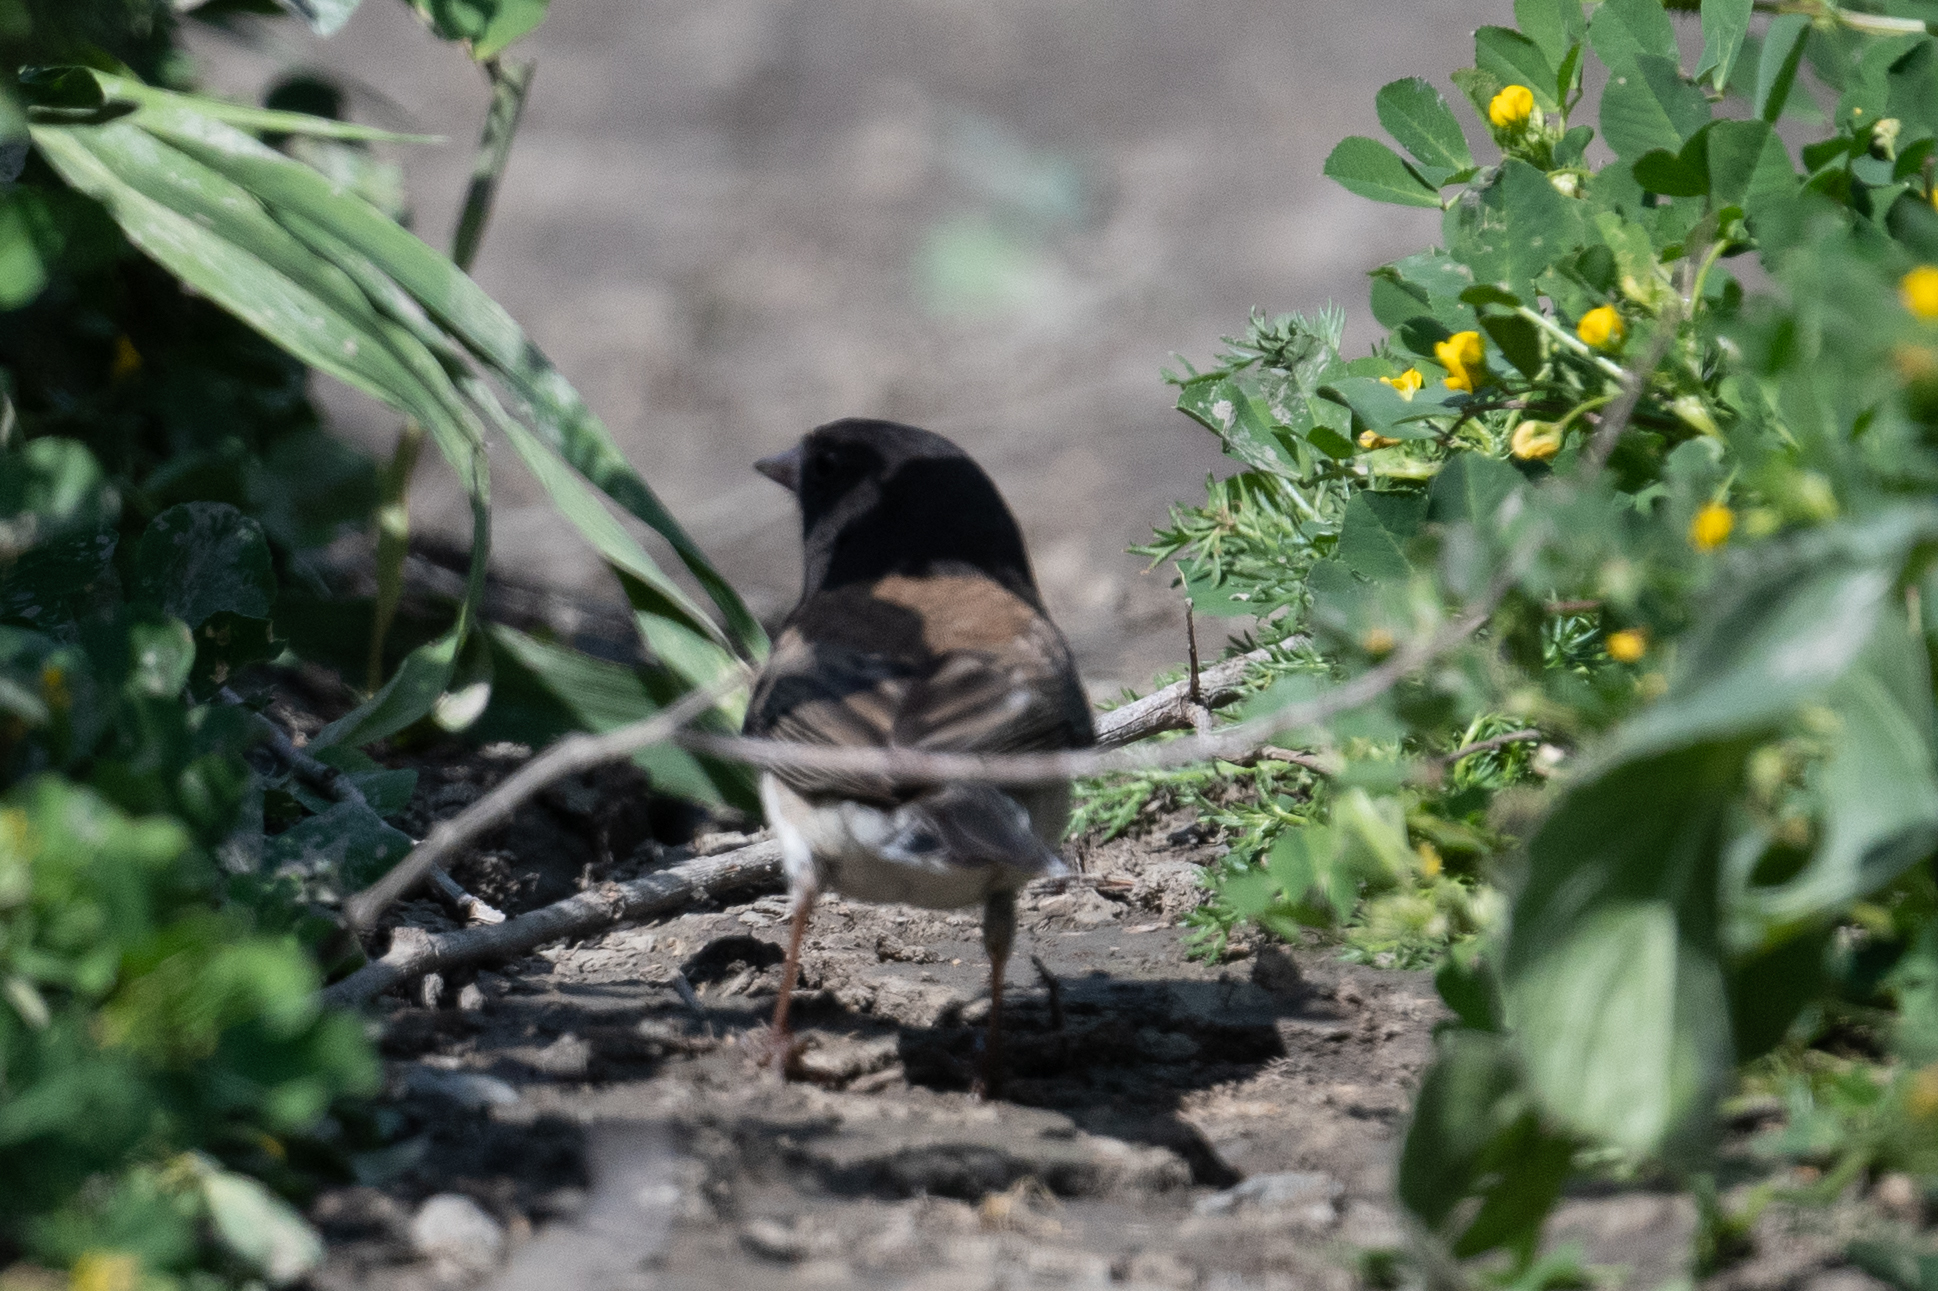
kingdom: Animalia
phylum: Chordata
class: Aves
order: Passeriformes
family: Passerellidae
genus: Junco
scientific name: Junco hyemalis
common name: Dark-eyed junco
